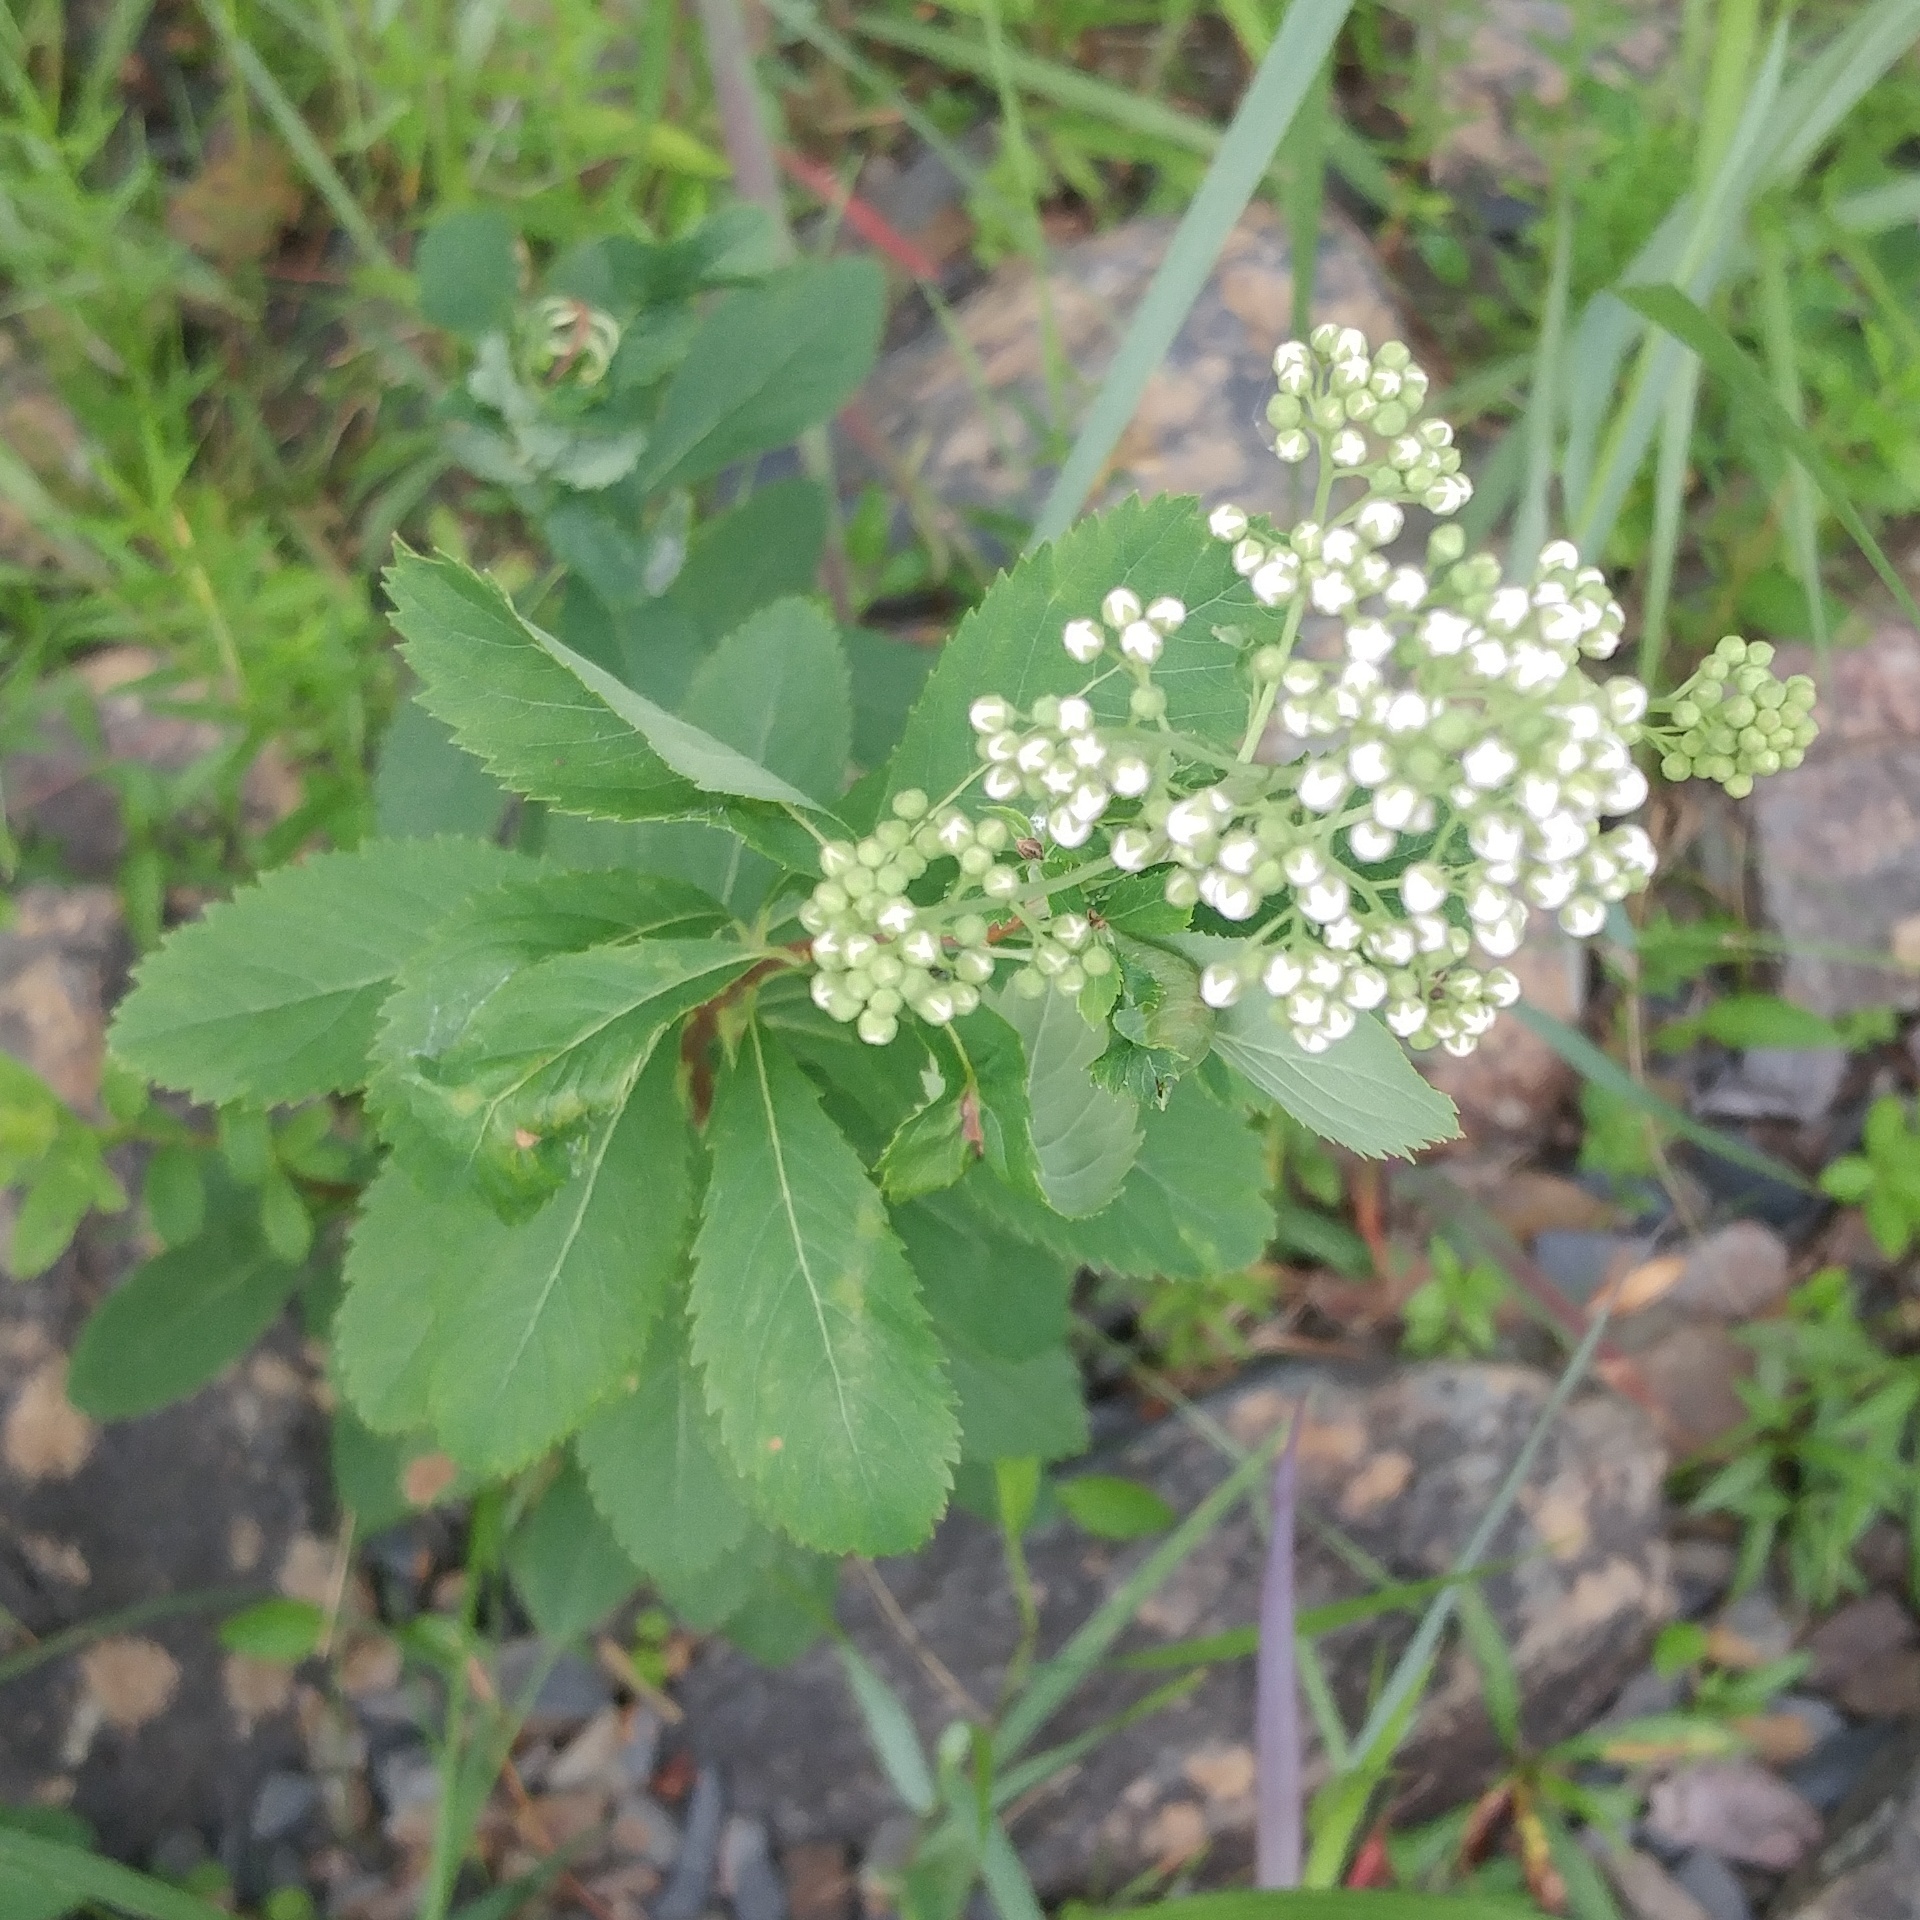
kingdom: Plantae
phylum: Tracheophyta
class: Magnoliopsida
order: Rosales
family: Rosaceae
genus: Spiraea
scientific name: Spiraea alba
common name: Pale bridewort
